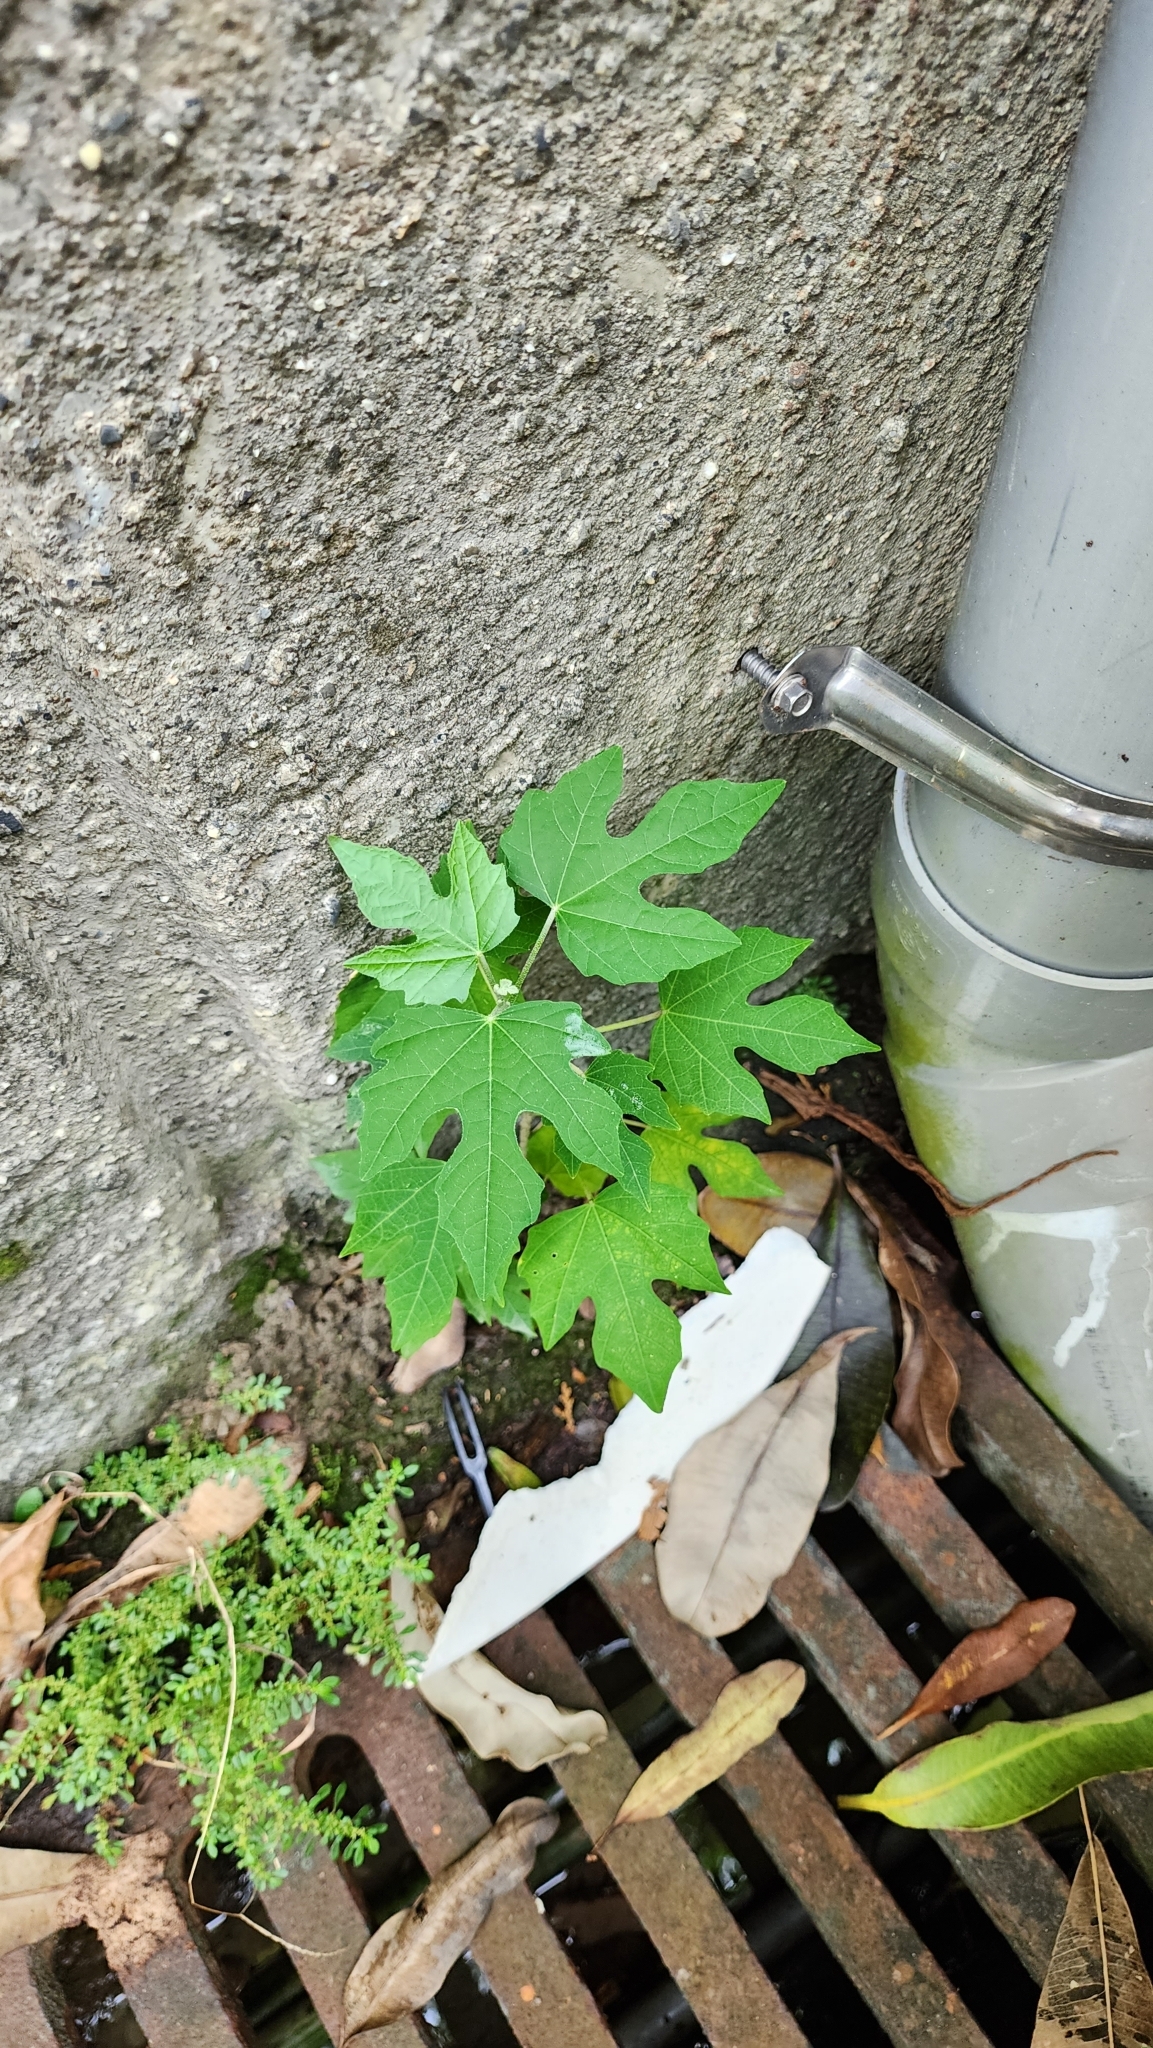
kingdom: Plantae
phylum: Tracheophyta
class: Magnoliopsida
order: Malpighiales
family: Euphorbiaceae
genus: Melanolepis
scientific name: Melanolepis multiglandulosa
